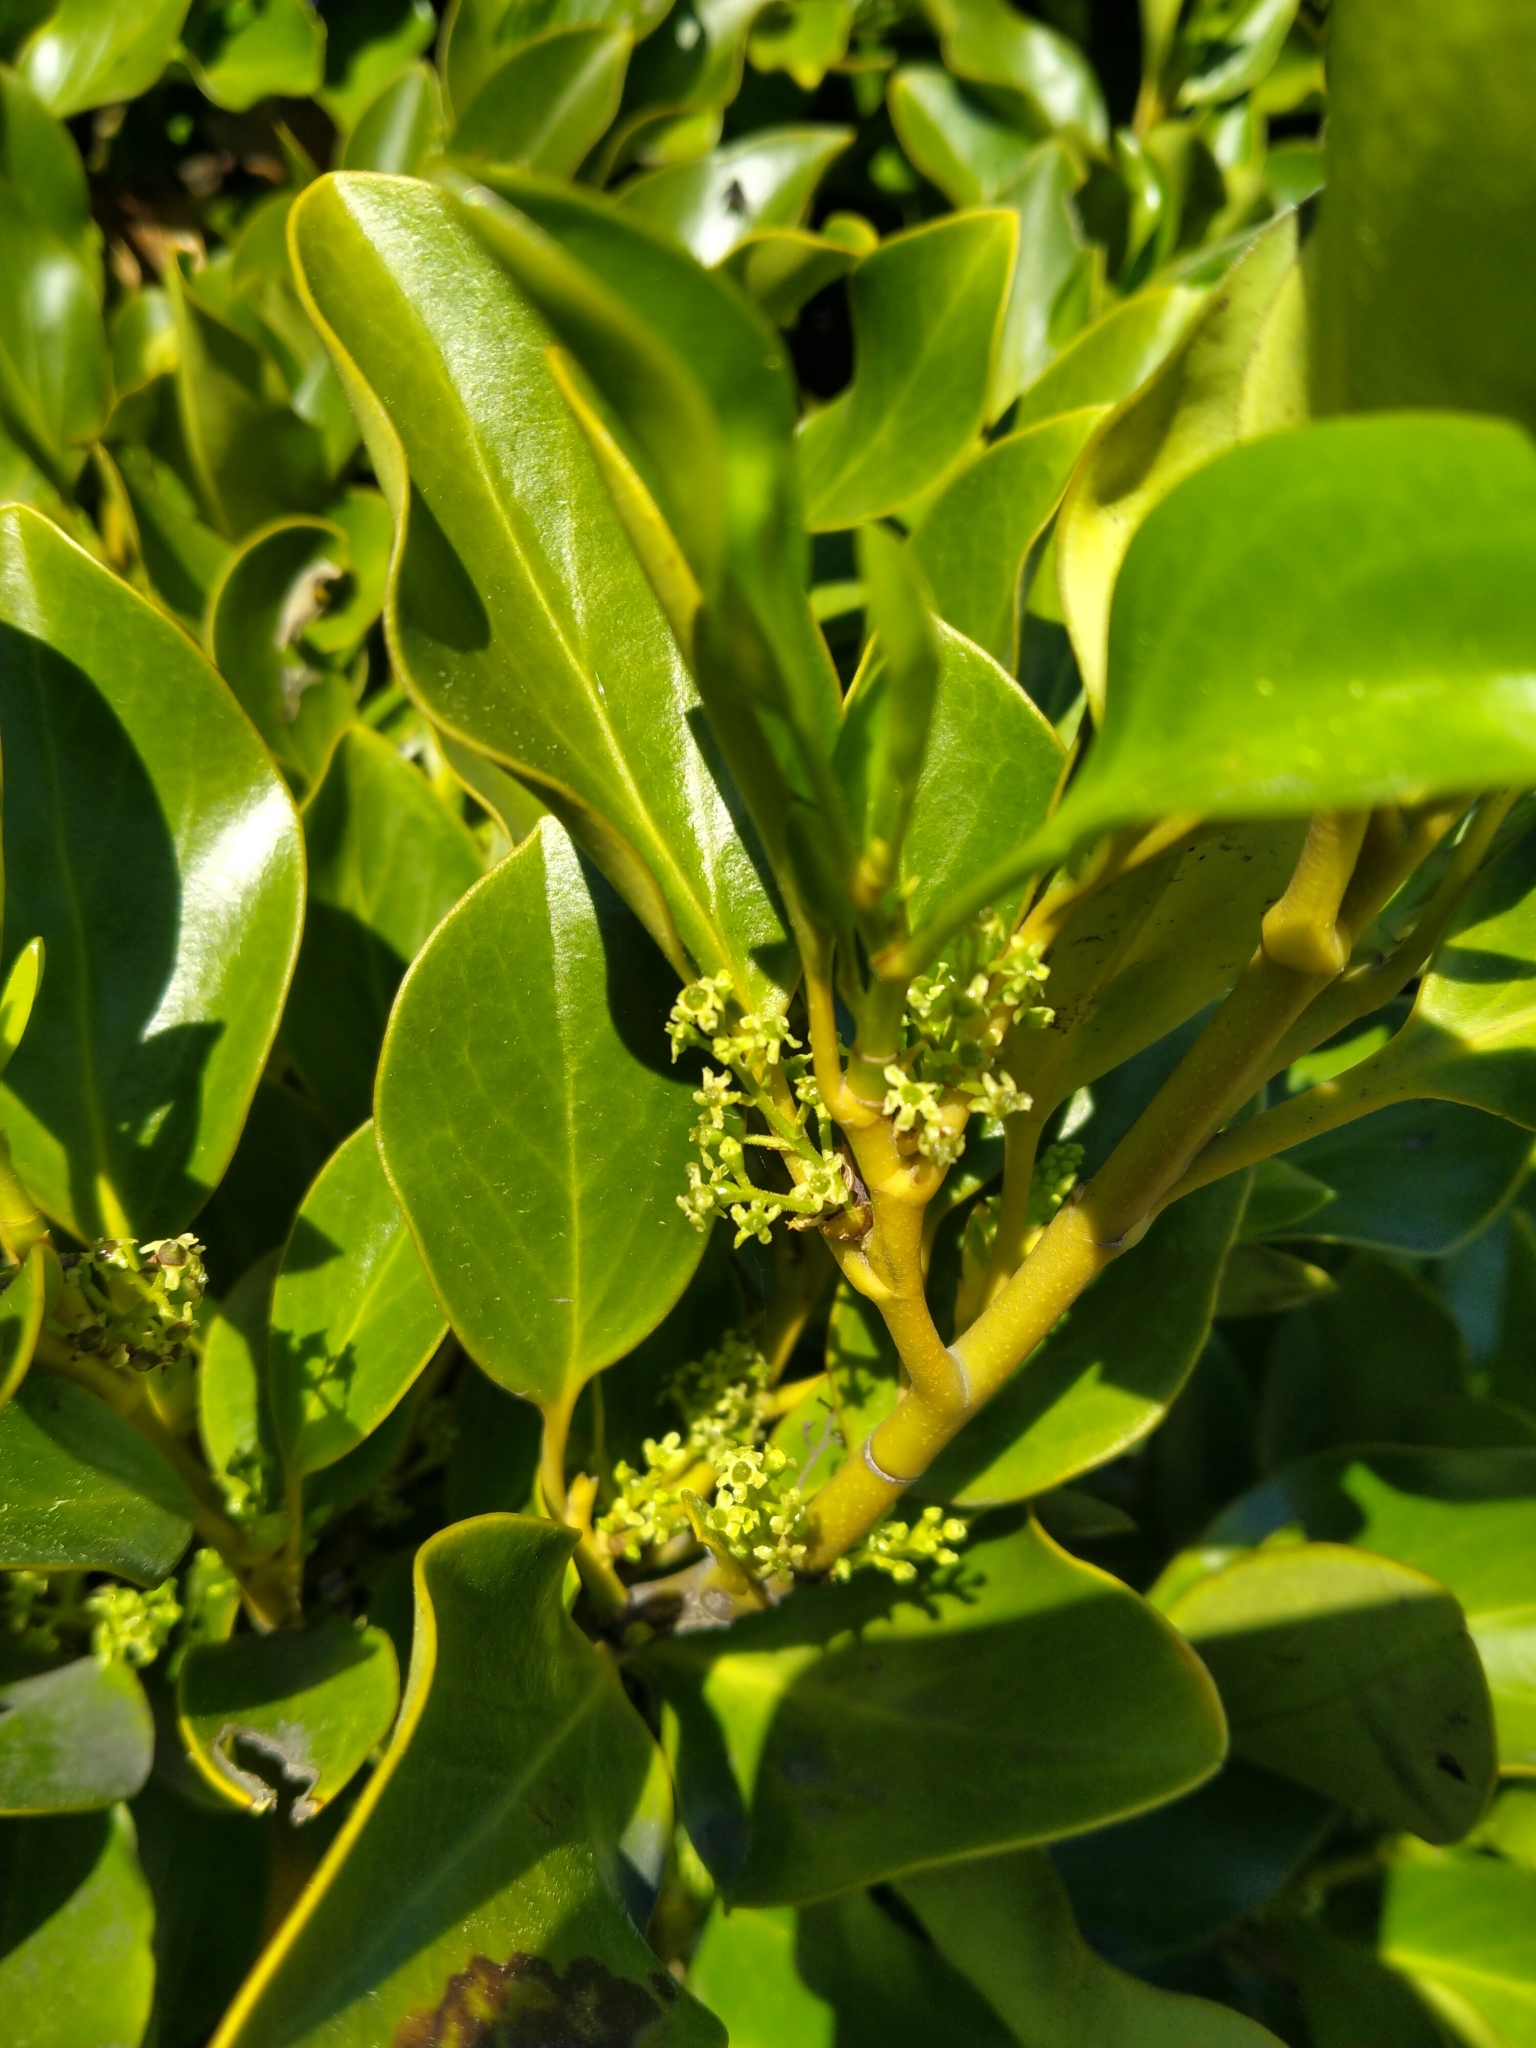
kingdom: Plantae
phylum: Tracheophyta
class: Magnoliopsida
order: Apiales
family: Griseliniaceae
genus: Griselinia
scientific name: Griselinia littoralis
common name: New zealand broadleaf
